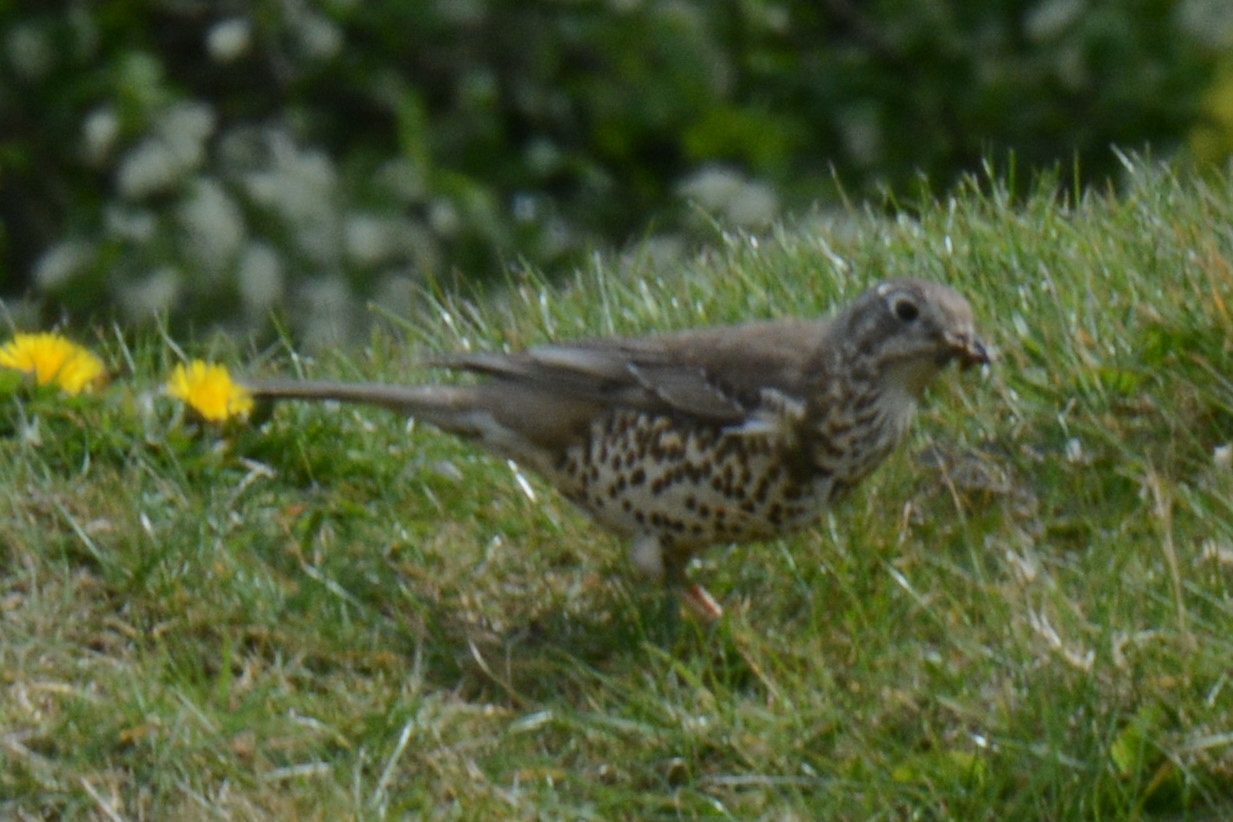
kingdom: Animalia
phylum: Chordata
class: Aves
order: Passeriformes
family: Turdidae
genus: Turdus
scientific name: Turdus viscivorus
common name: Mistle thrush
